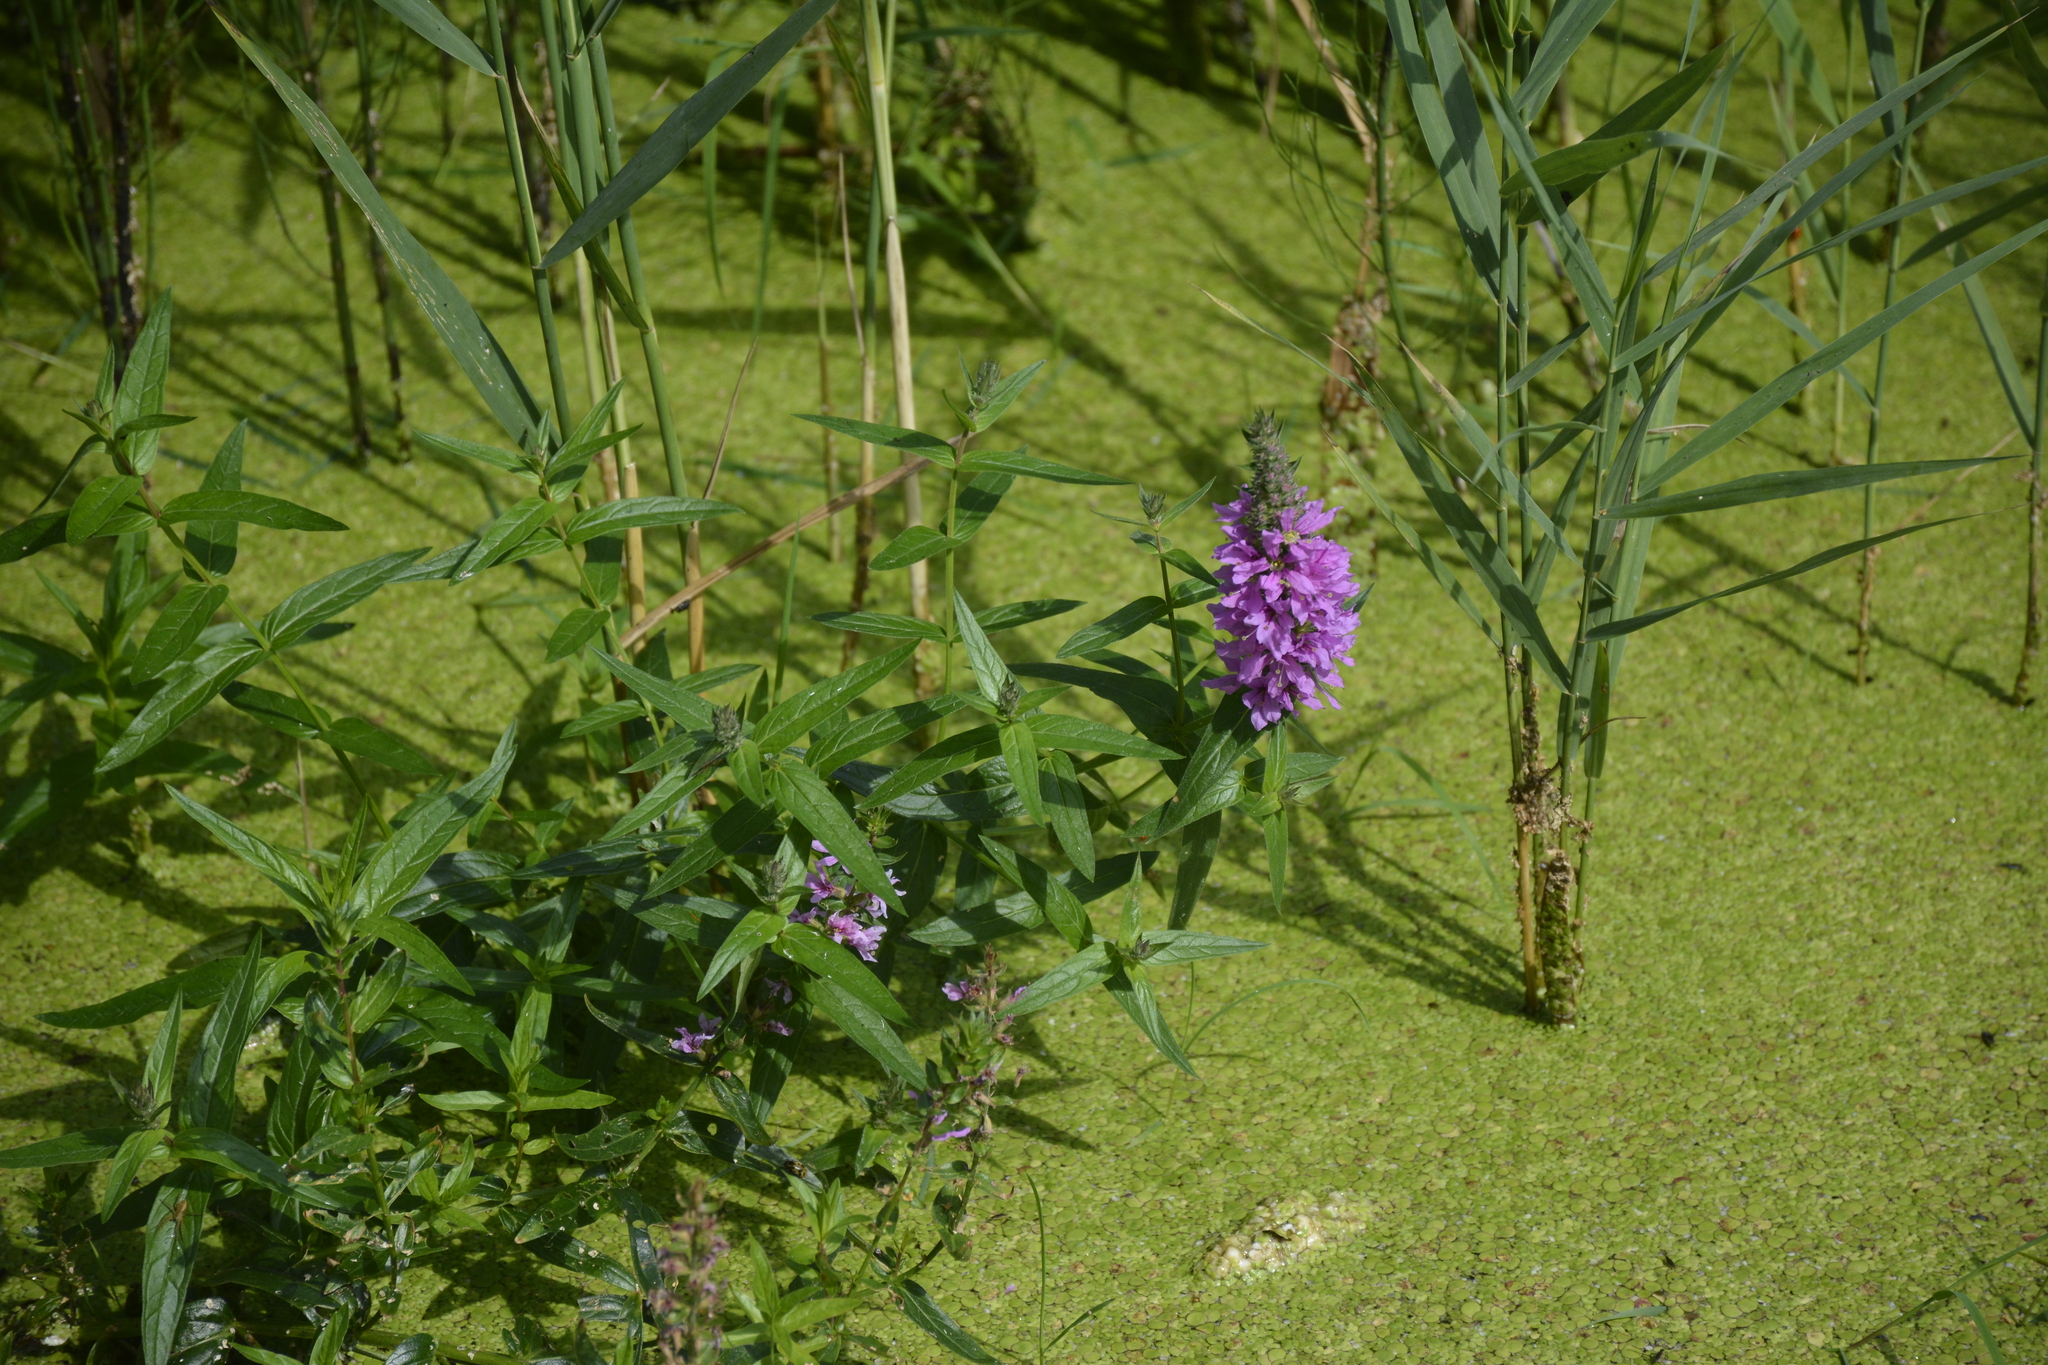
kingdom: Plantae
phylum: Tracheophyta
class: Magnoliopsida
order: Myrtales
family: Lythraceae
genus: Lythrum
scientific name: Lythrum salicaria
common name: Purple loosestrife
